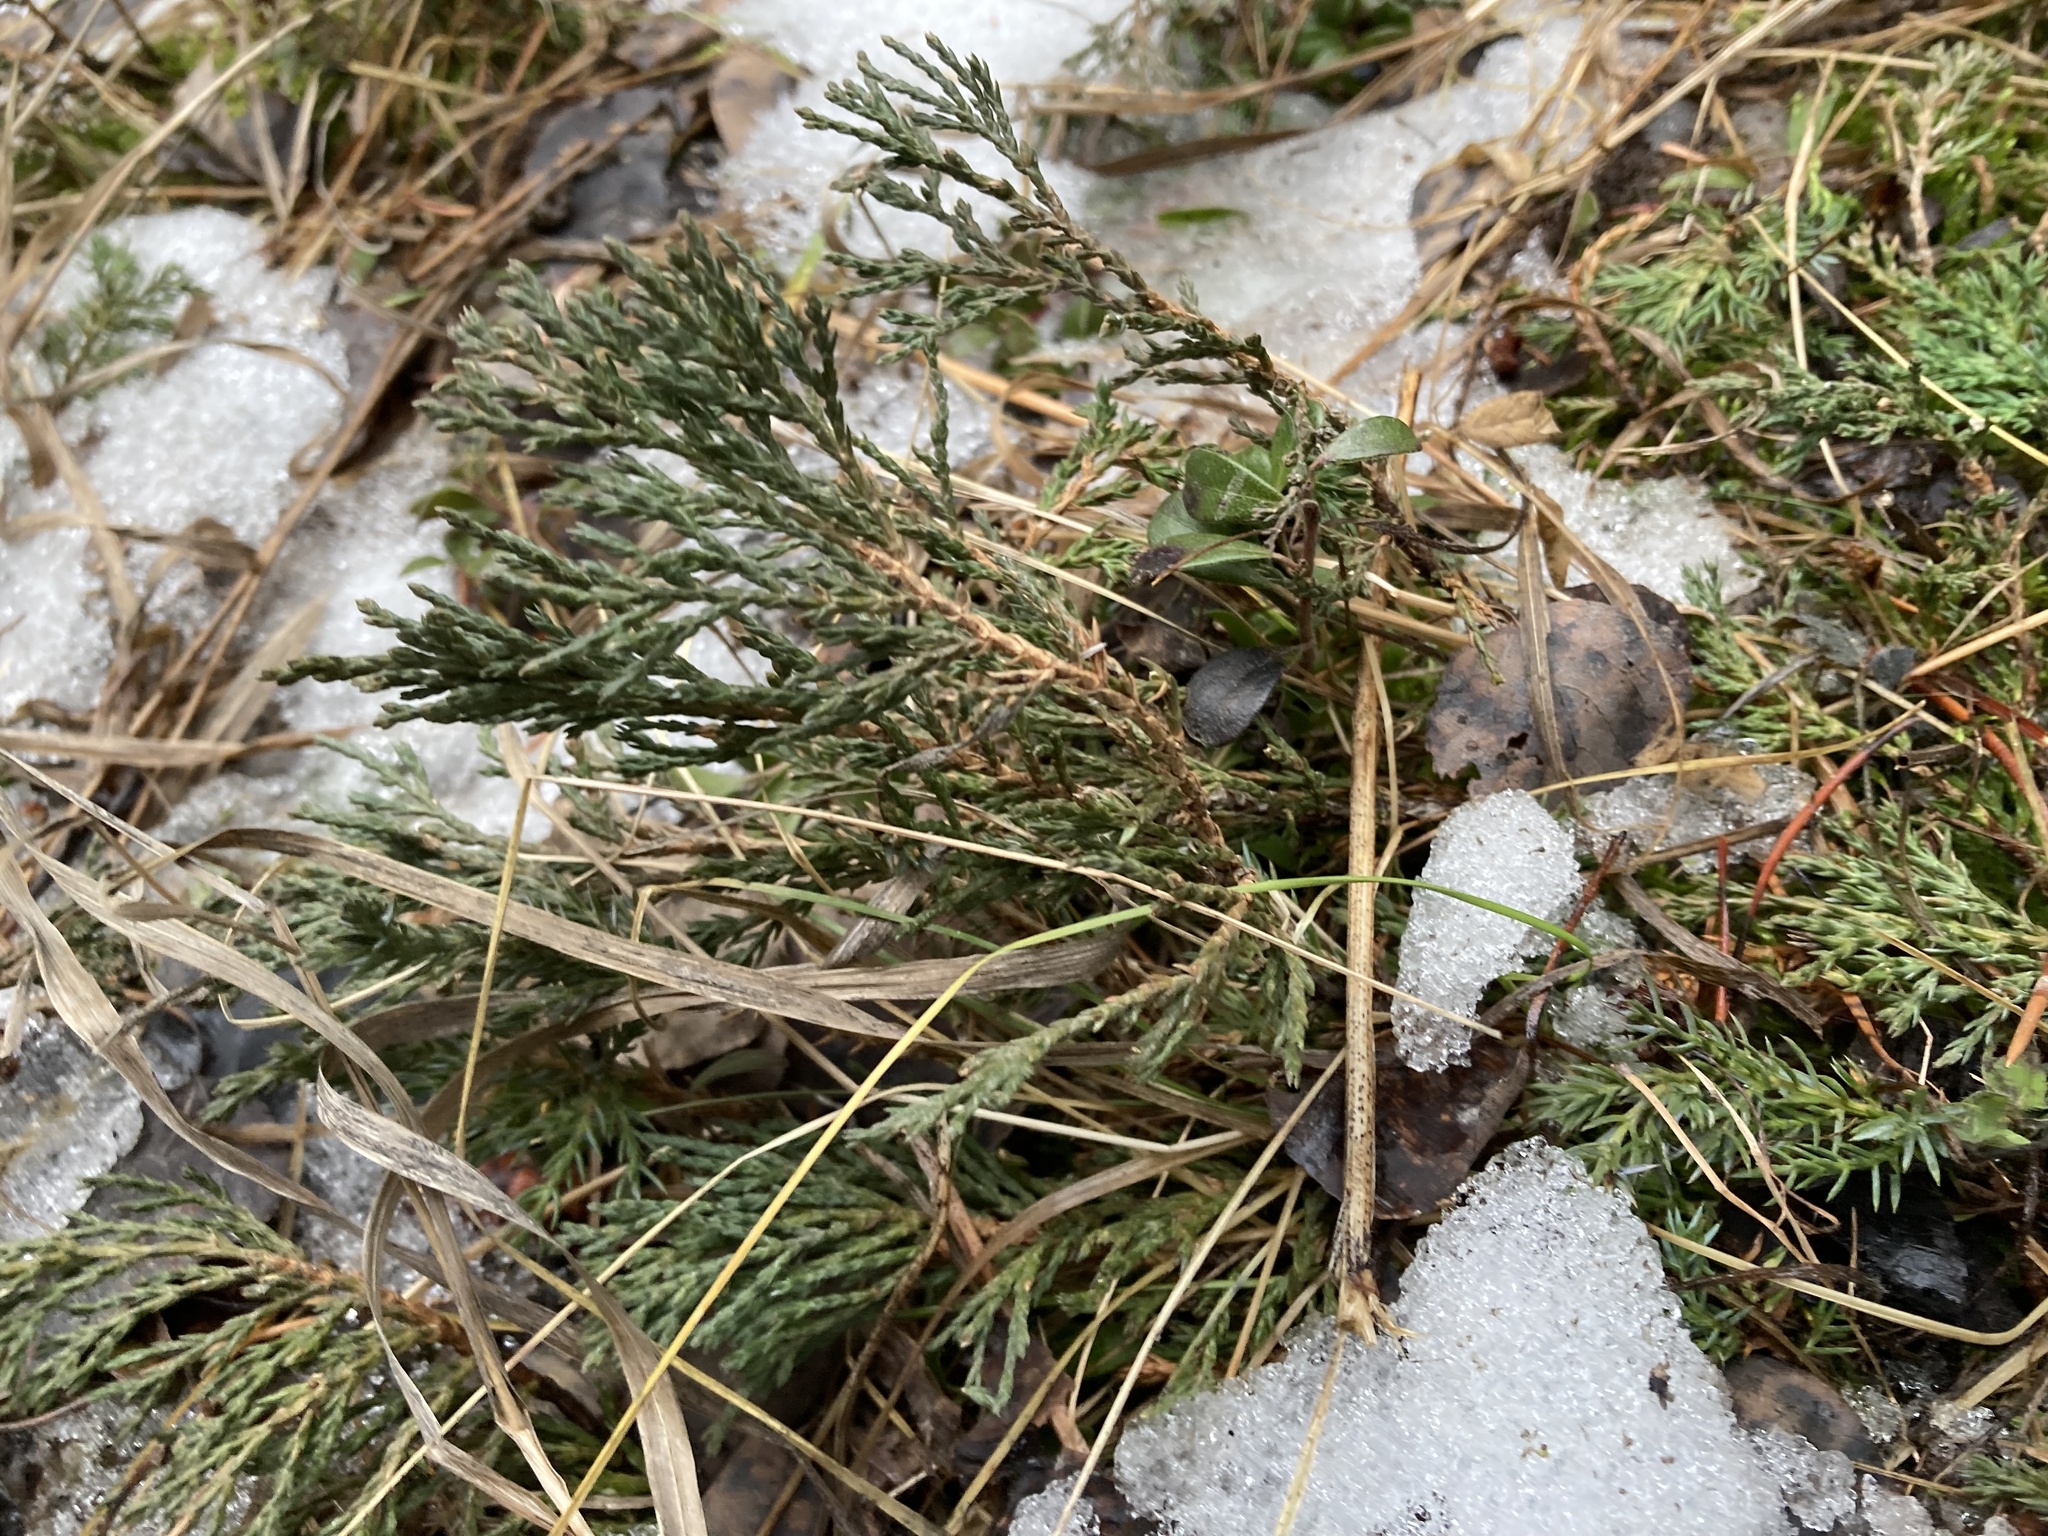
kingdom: Plantae
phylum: Tracheophyta
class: Pinopsida
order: Pinales
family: Cupressaceae
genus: Juniperus
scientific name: Juniperus horizontalis
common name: Creeping juniper
